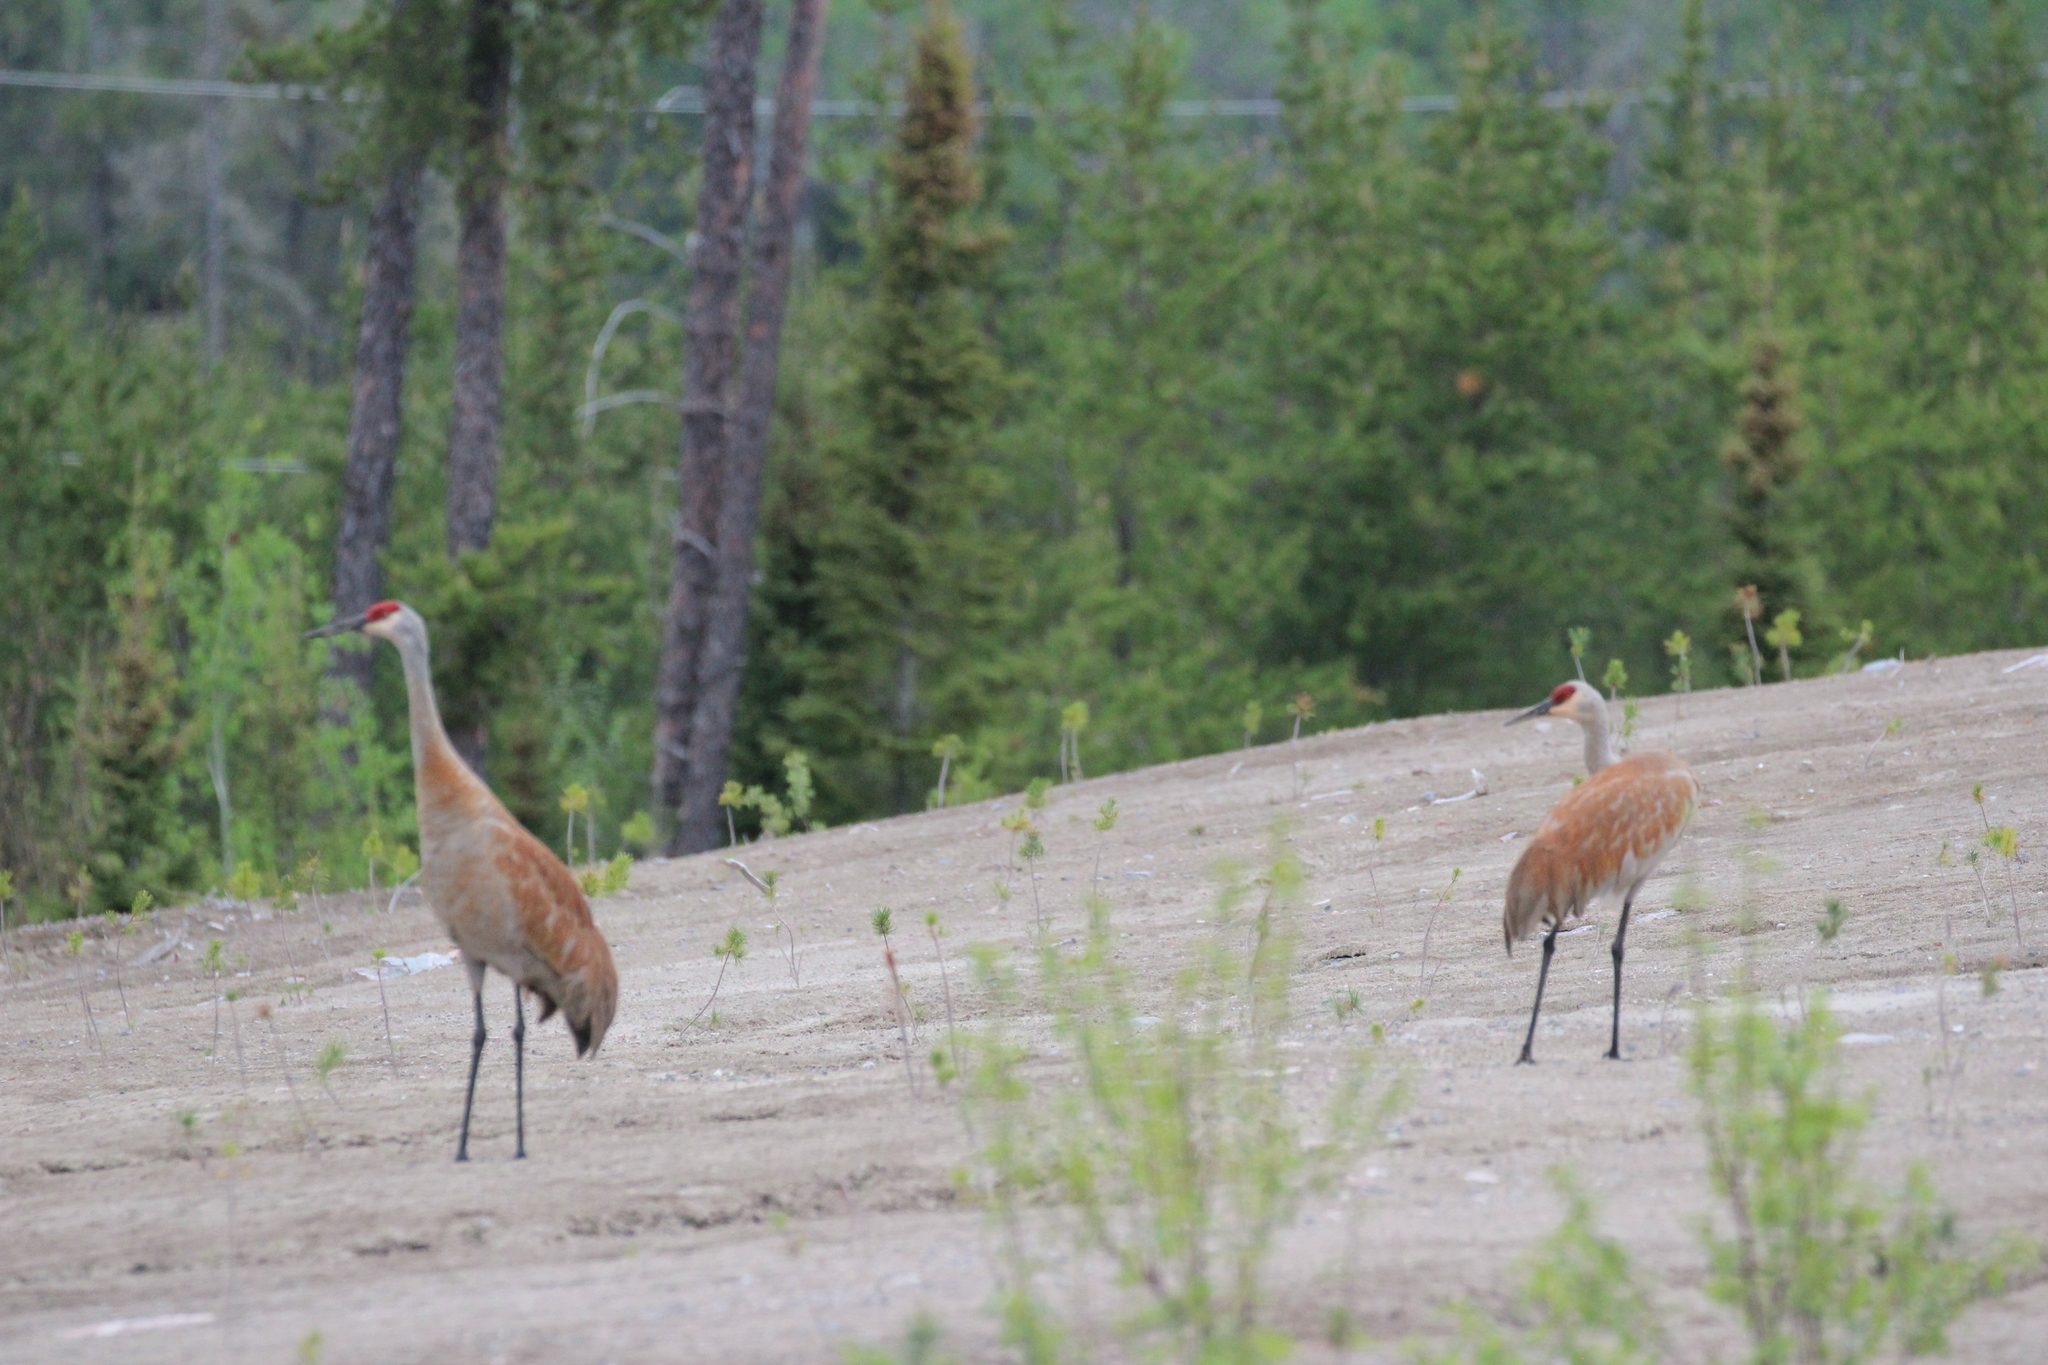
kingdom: Animalia
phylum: Chordata
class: Aves
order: Gruiformes
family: Gruidae
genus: Grus
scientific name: Grus canadensis
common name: Sandhill crane
